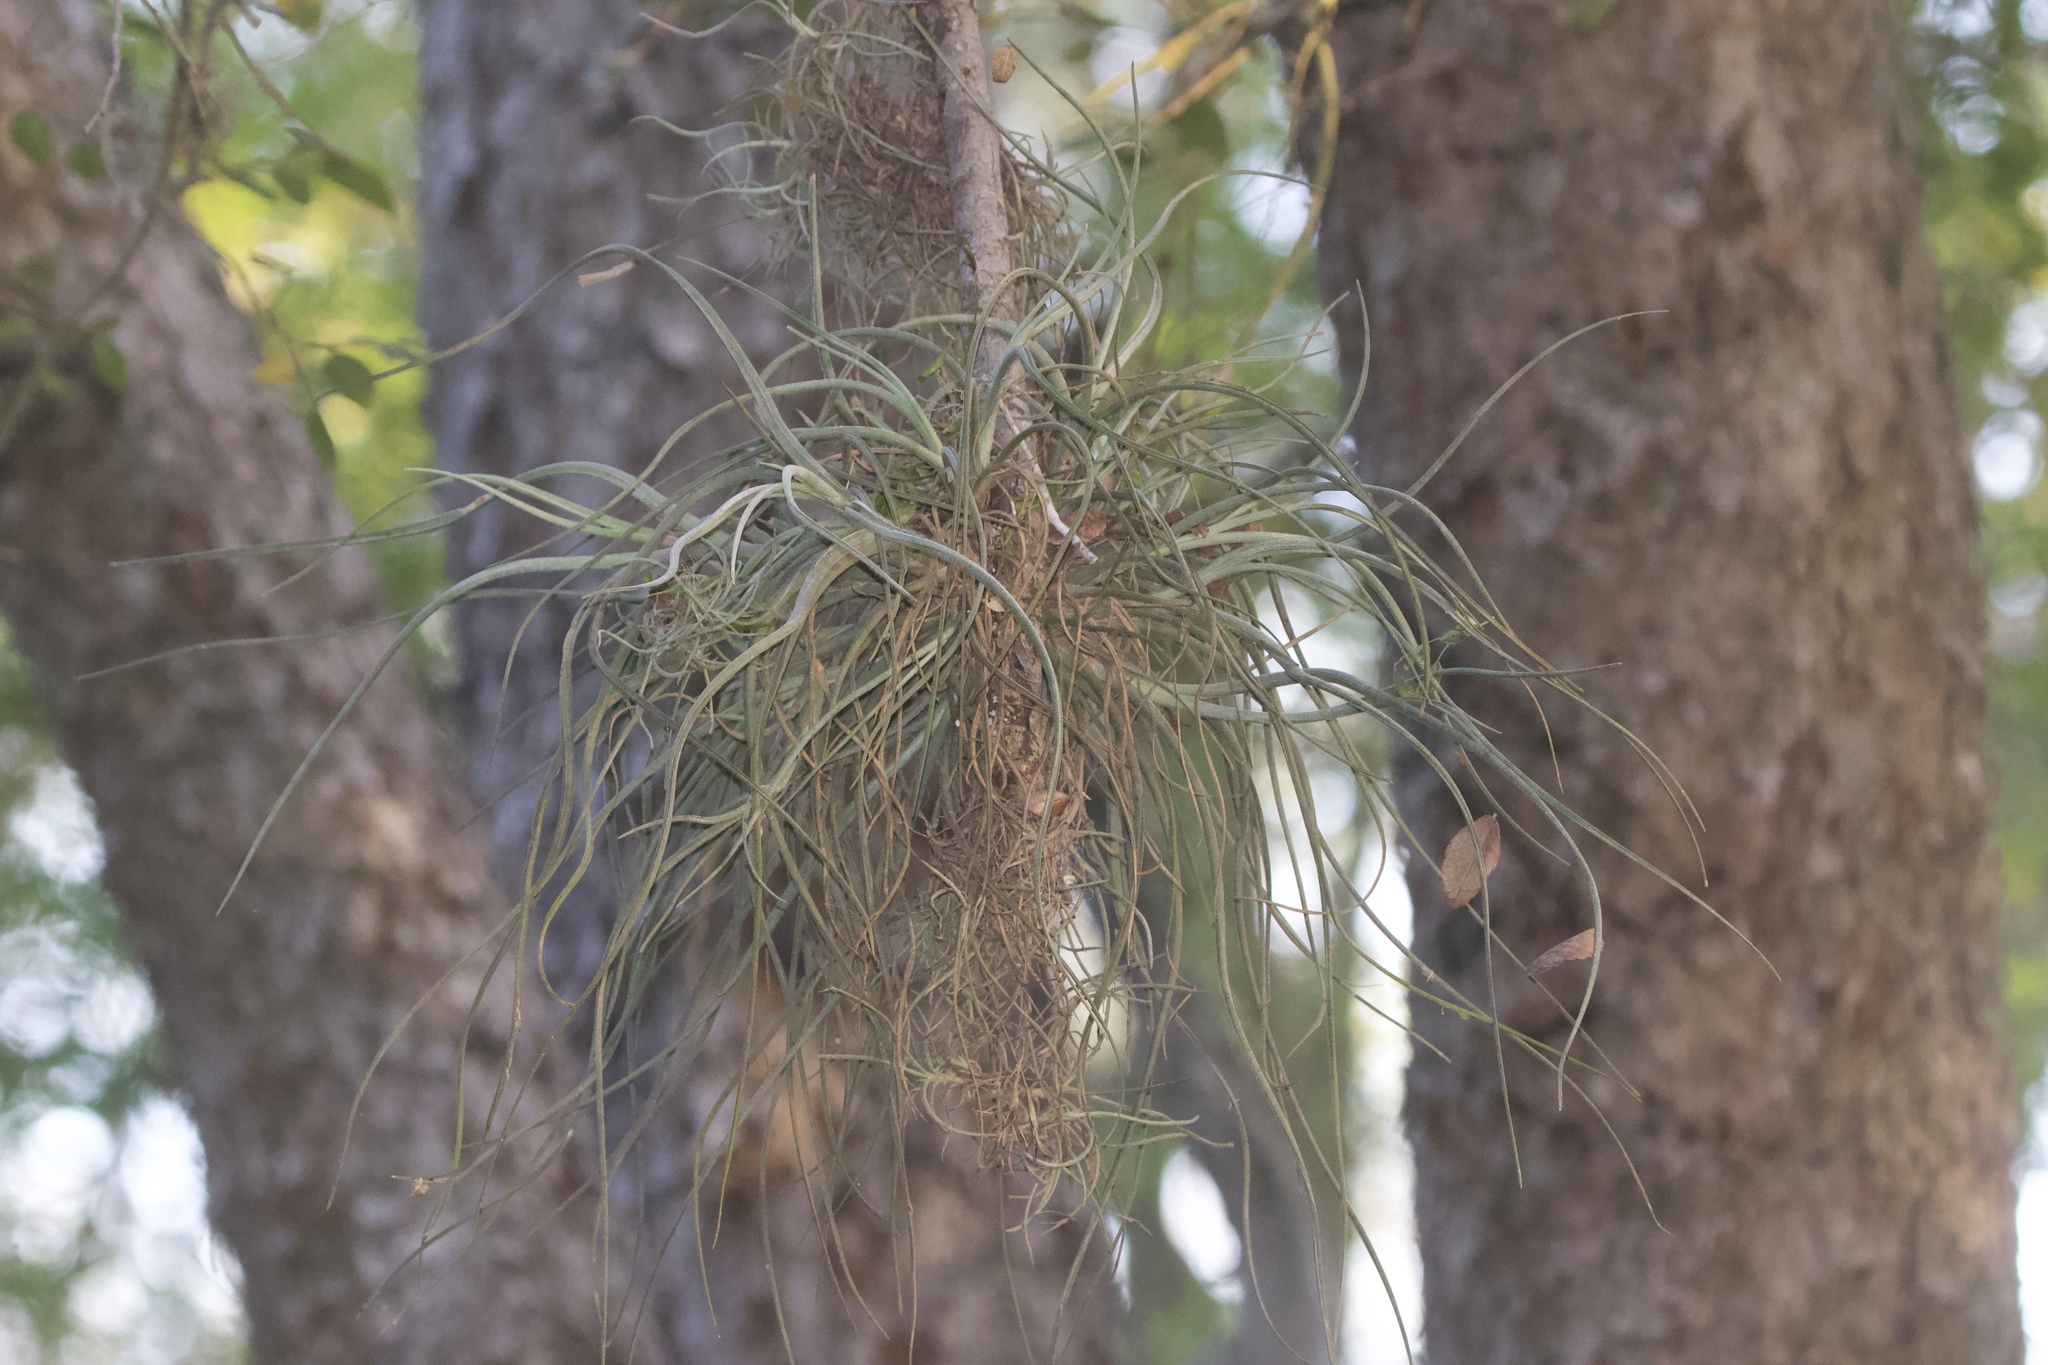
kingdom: Plantae
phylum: Tracheophyta
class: Liliopsida
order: Poales
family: Bromeliaceae
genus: Tillandsia
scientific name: Tillandsia baileyi
